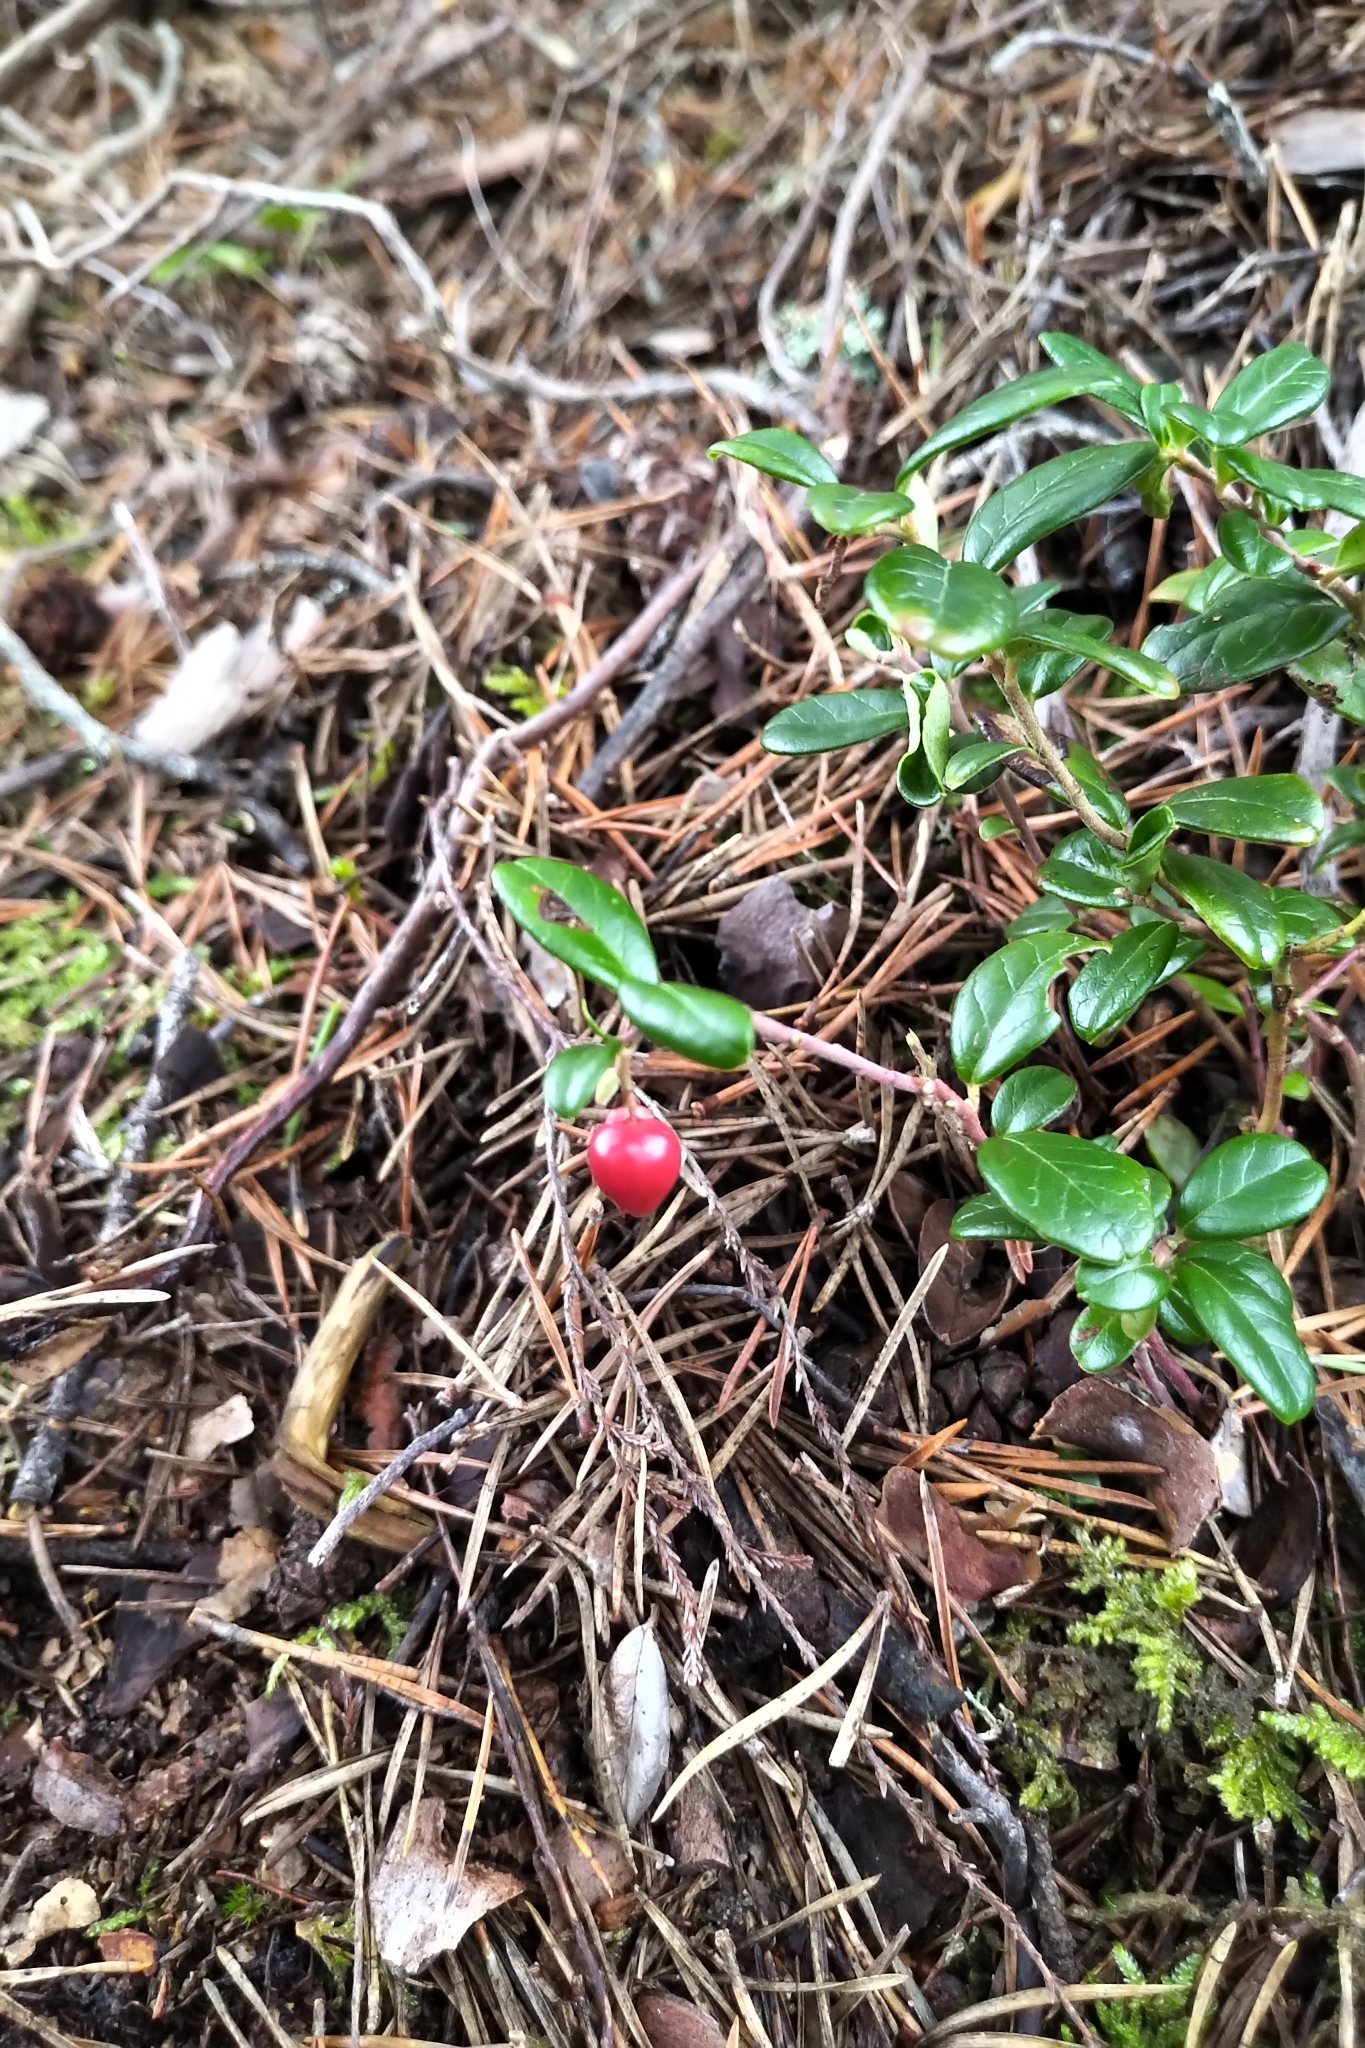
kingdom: Plantae
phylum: Tracheophyta
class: Magnoliopsida
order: Ericales
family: Ericaceae
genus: Vaccinium
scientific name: Vaccinium vitis-idaea
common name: Cowberry
